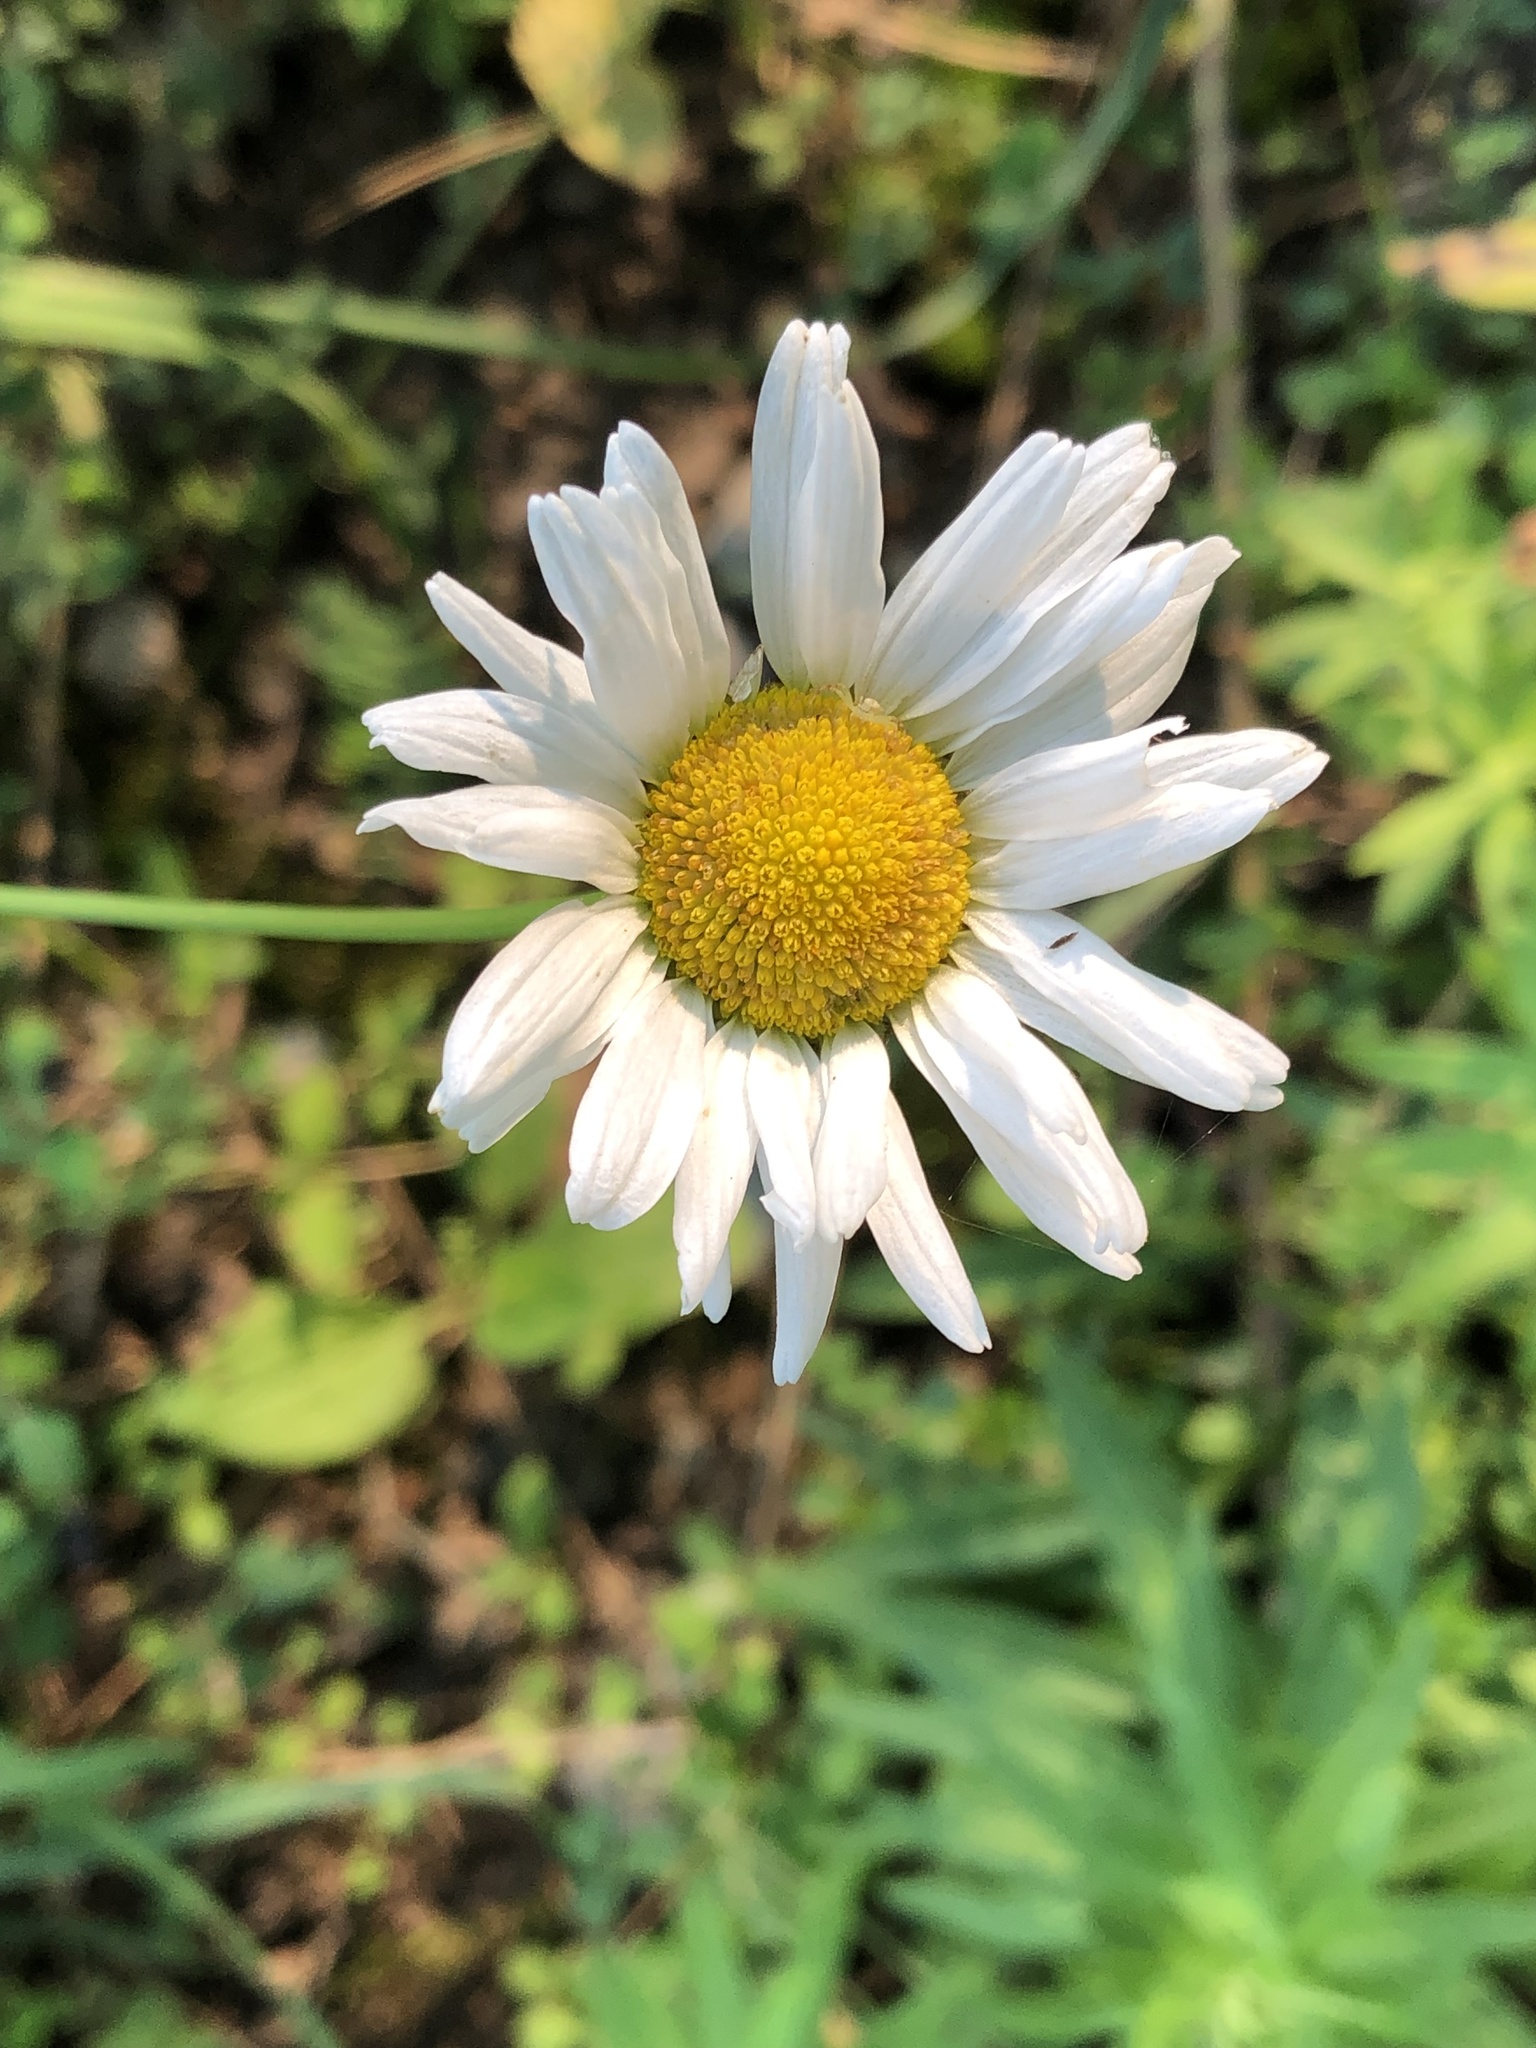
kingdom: Plantae
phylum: Tracheophyta
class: Magnoliopsida
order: Asterales
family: Asteraceae
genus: Leucanthemum
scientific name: Leucanthemum vulgare
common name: Oxeye daisy
